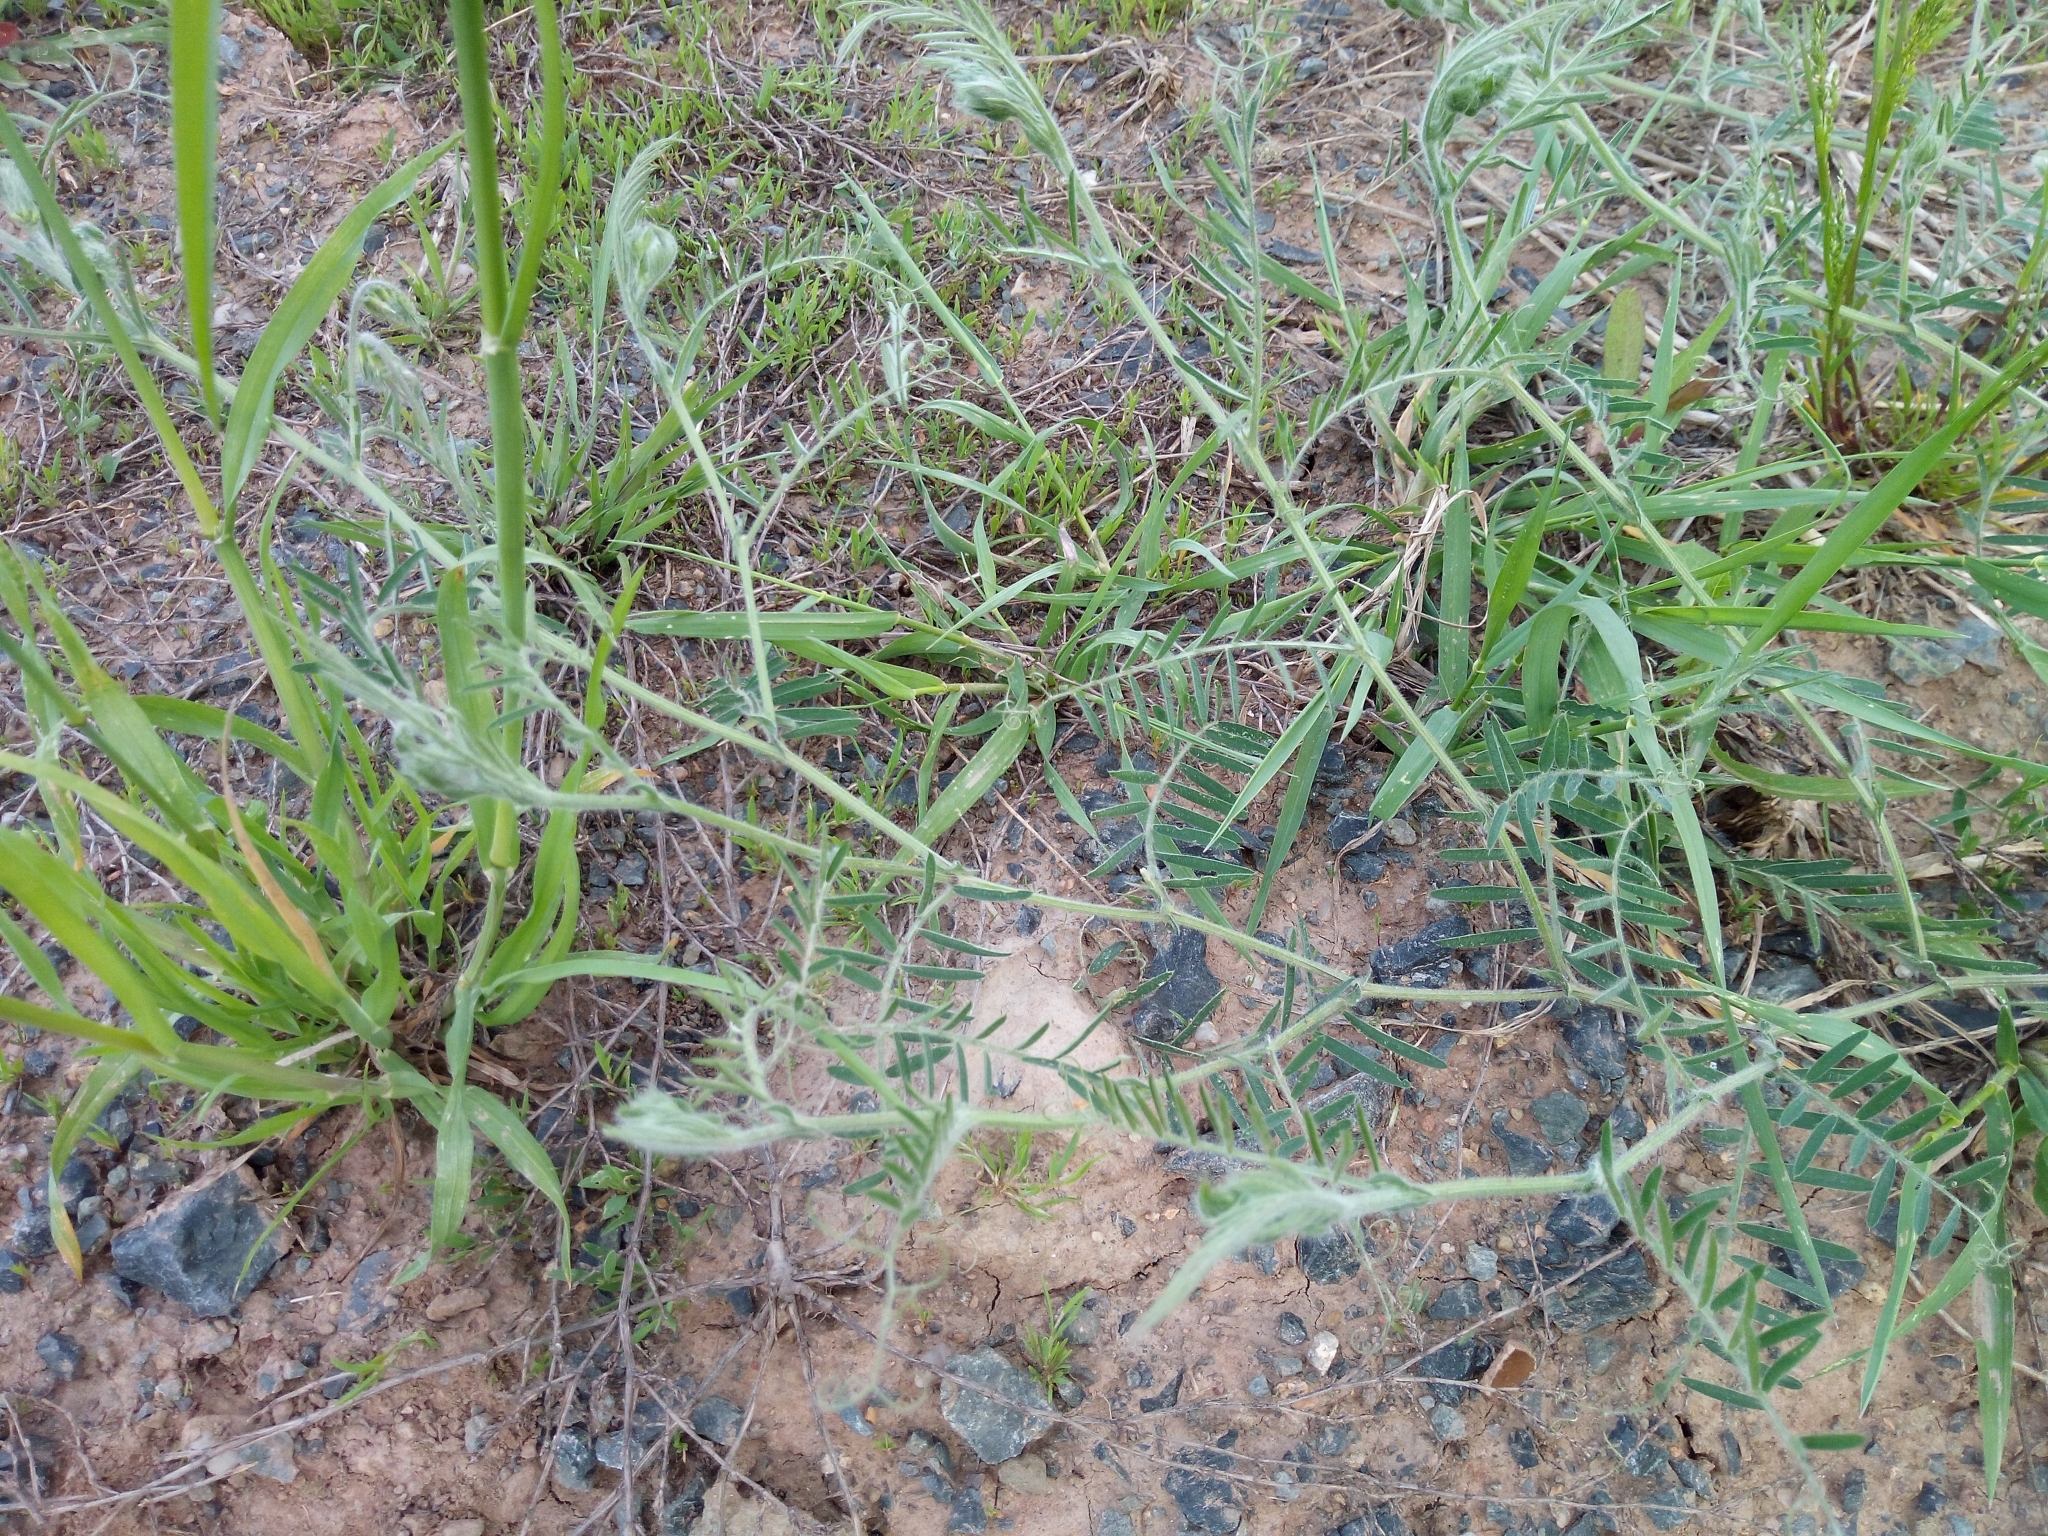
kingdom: Plantae
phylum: Tracheophyta
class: Magnoliopsida
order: Fabales
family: Fabaceae
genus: Vicia
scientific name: Vicia villosa
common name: Fodder vetch
